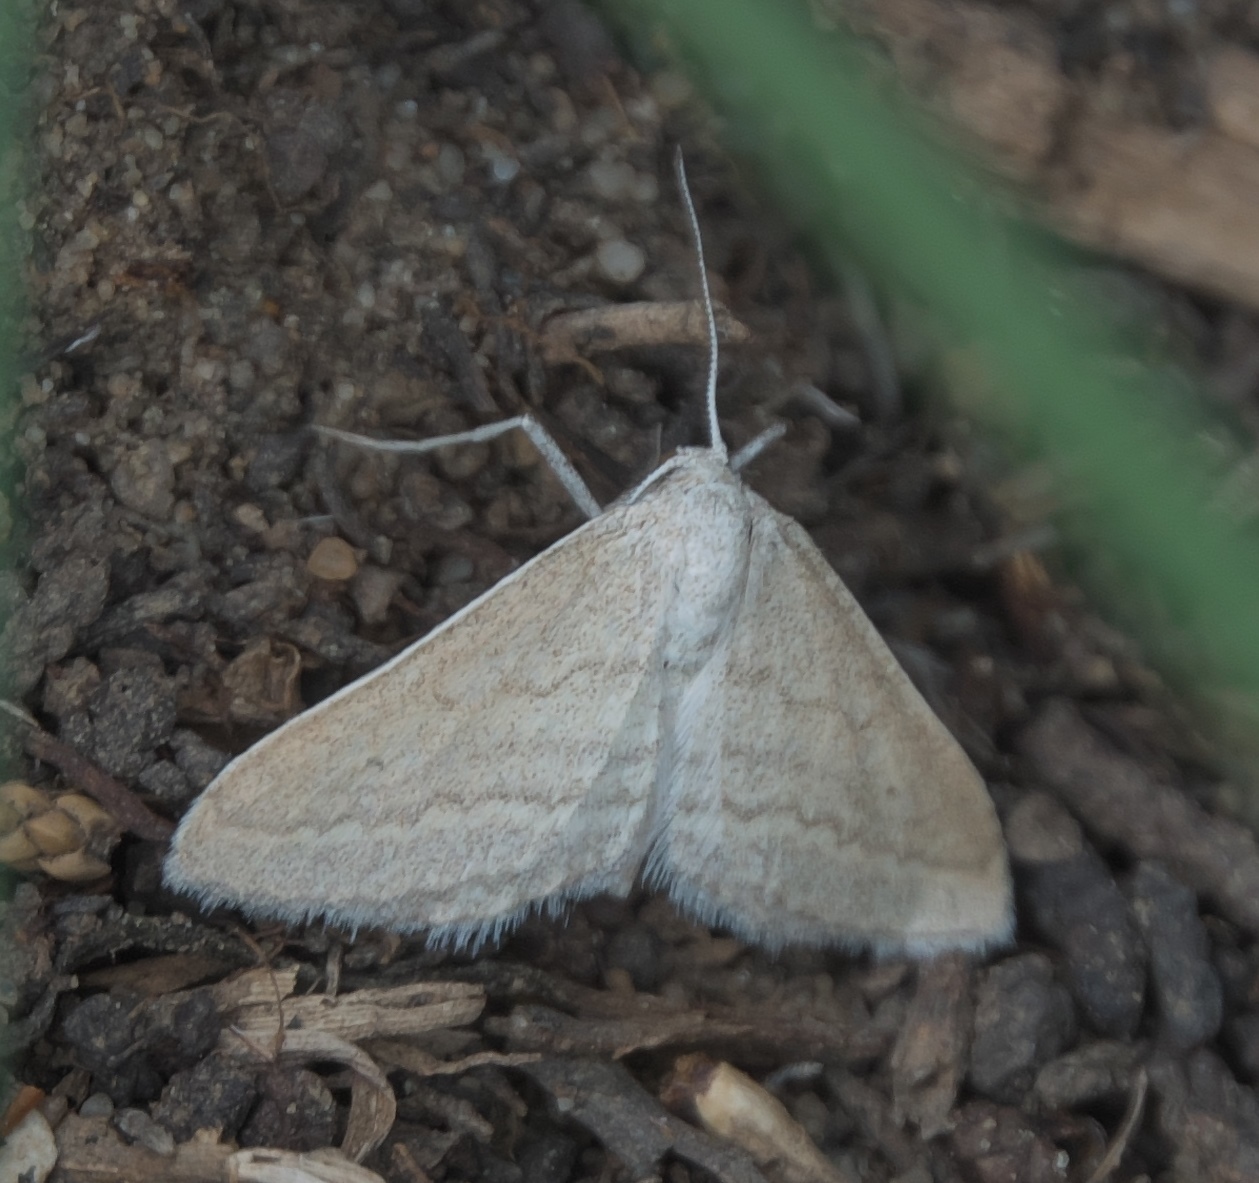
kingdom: Animalia
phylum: Arthropoda
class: Insecta
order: Lepidoptera
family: Geometridae
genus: Lobocleta
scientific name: Lobocleta plemyraria
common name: Straight-lined wave
